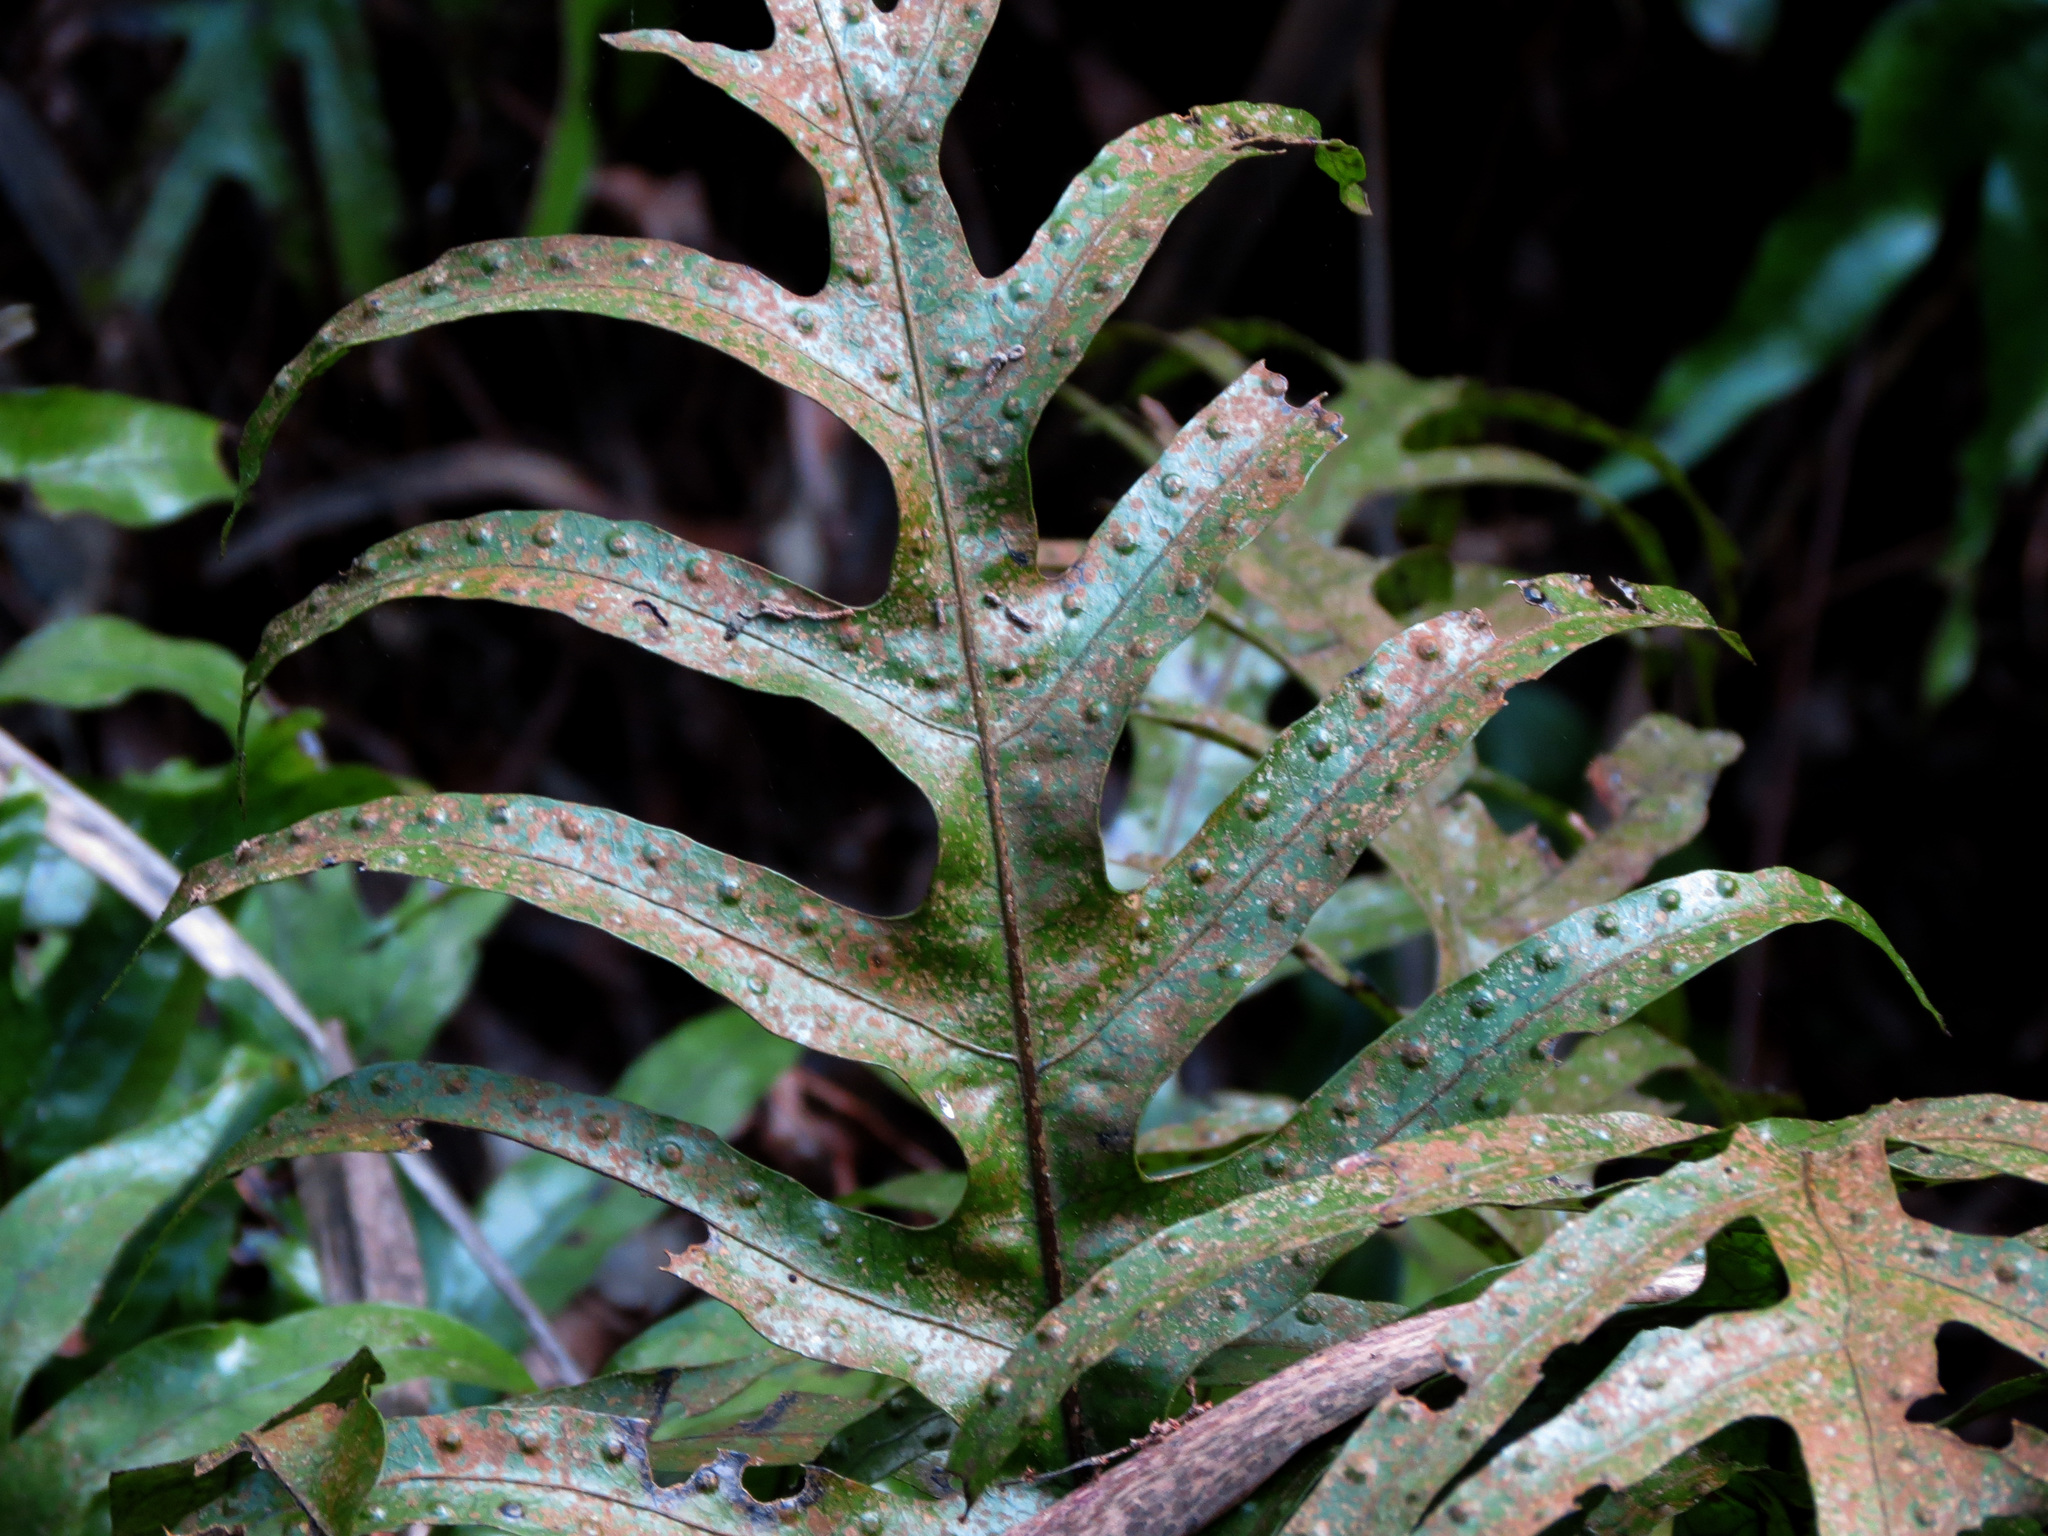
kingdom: Plantae
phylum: Tracheophyta
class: Polypodiopsida
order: Polypodiales
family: Polypodiaceae
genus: Lecanopteris
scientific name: Lecanopteris pustulata
